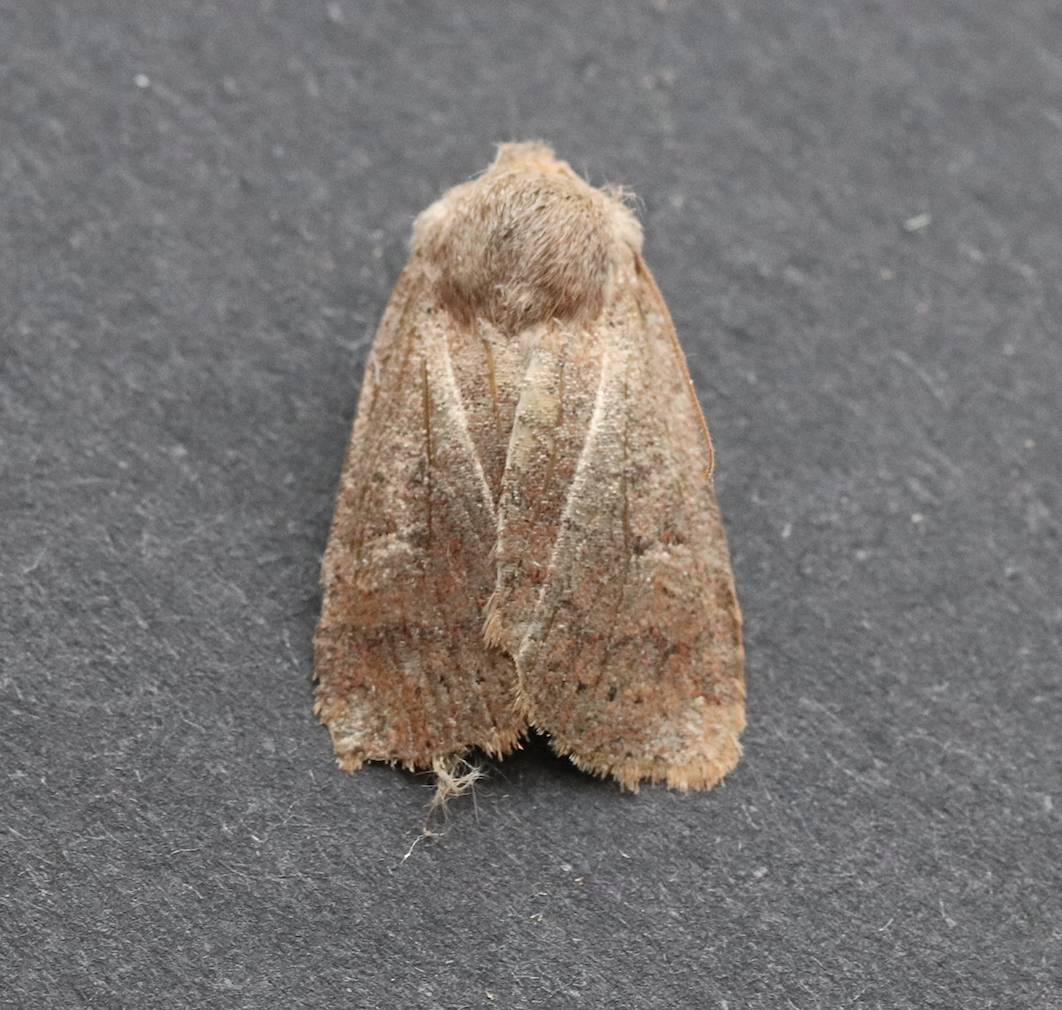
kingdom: Animalia
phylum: Arthropoda
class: Insecta
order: Lepidoptera
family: Noctuidae
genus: Conistra
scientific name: Conistra vaccinii
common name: Chestnut
